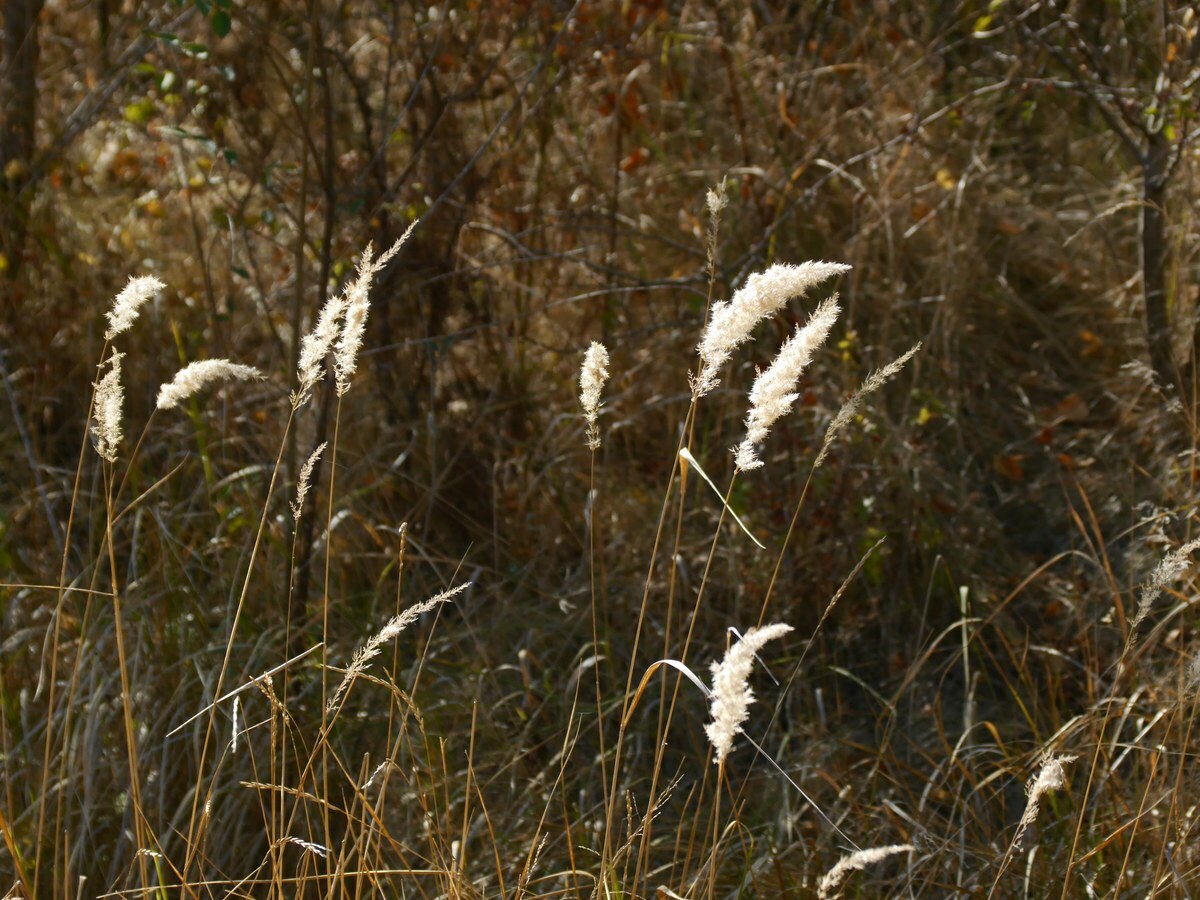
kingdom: Plantae
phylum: Tracheophyta
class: Liliopsida
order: Poales
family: Poaceae
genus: Calamagrostis
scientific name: Calamagrostis epigejos
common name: Wood small-reed
